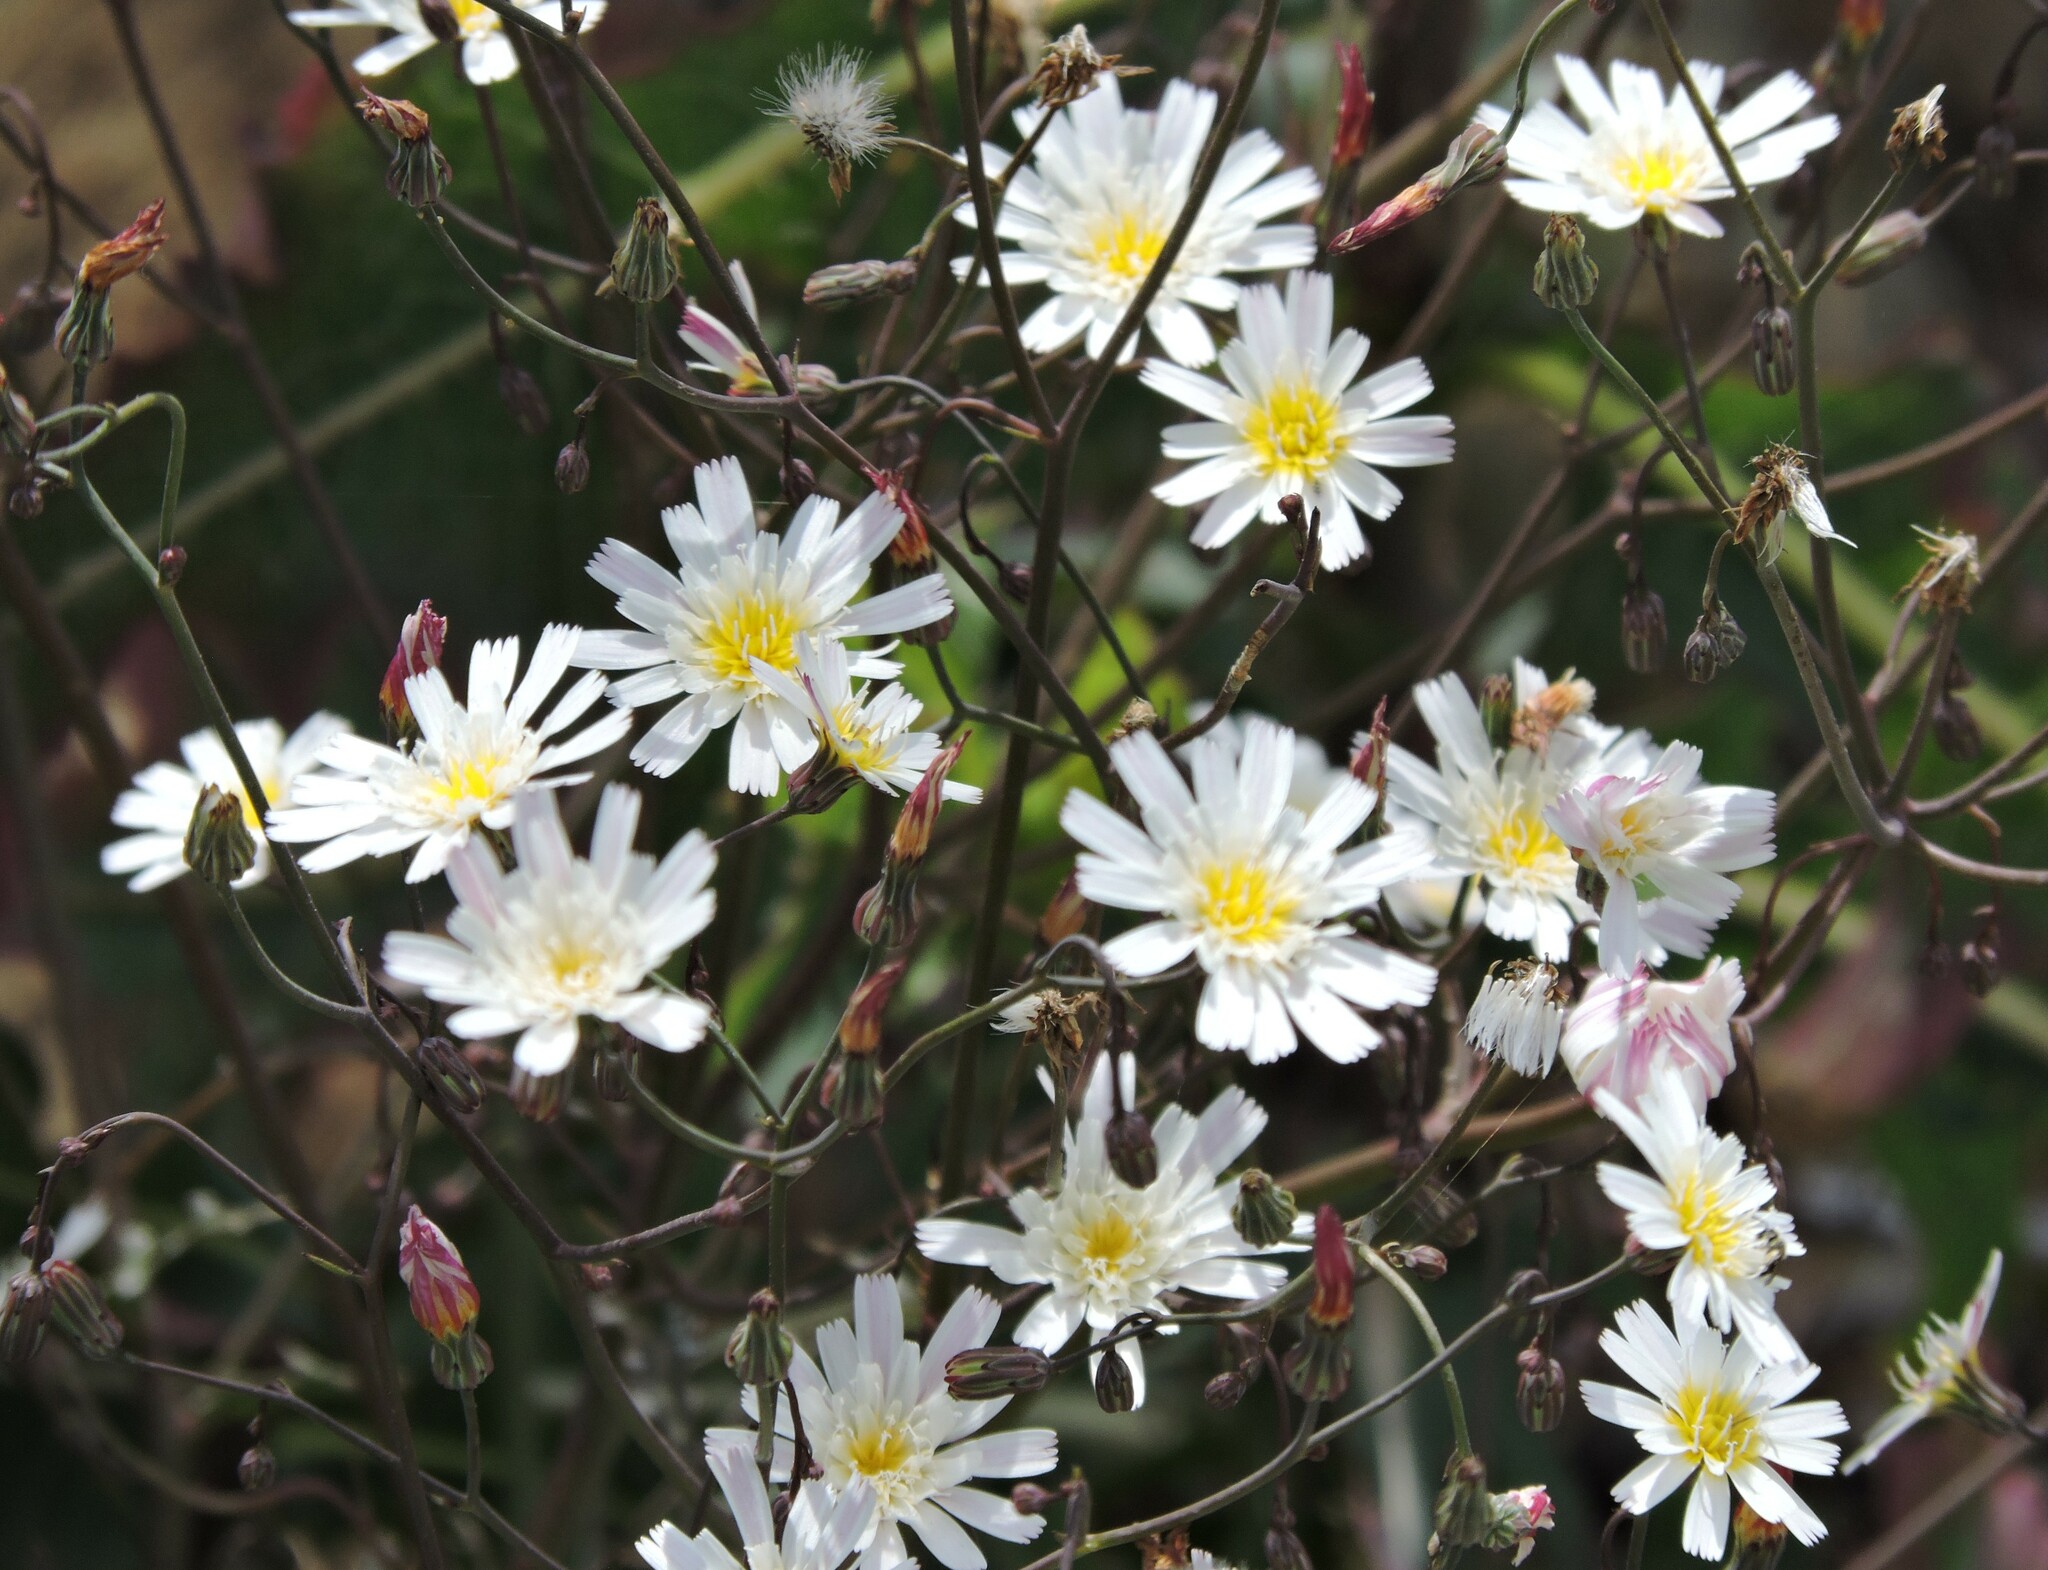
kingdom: Plantae
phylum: Tracheophyta
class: Magnoliopsida
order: Asterales
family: Asteraceae
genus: Malacothrix
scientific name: Malacothrix floccifera
